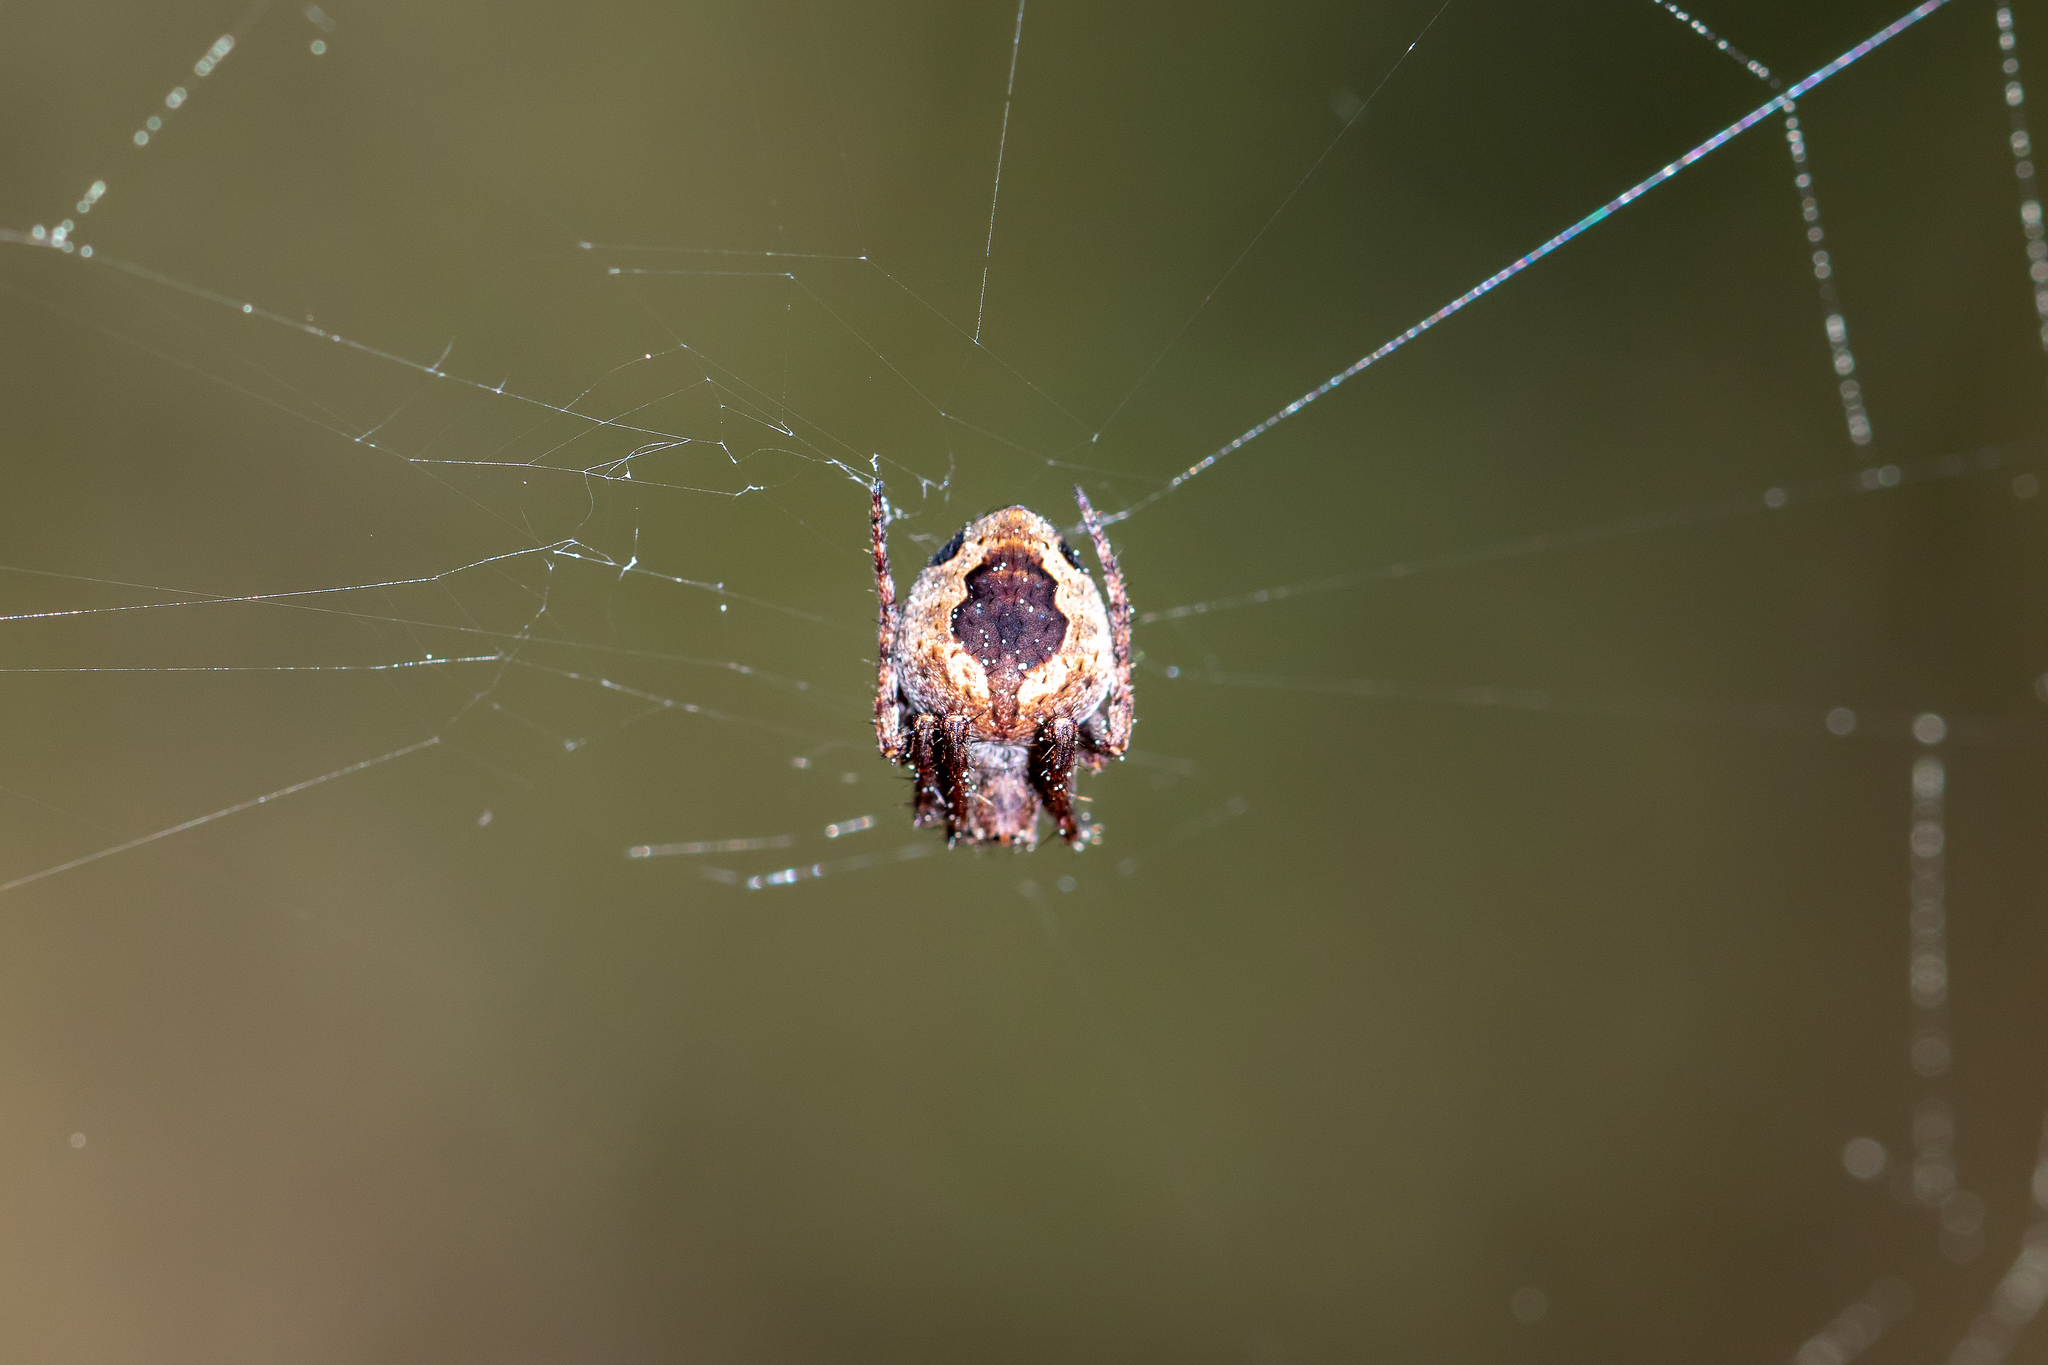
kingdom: Animalia
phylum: Arthropoda
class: Arachnida
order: Araneae
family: Araneidae
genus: Eustala
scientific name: Eustala anastera
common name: Orb weavers
